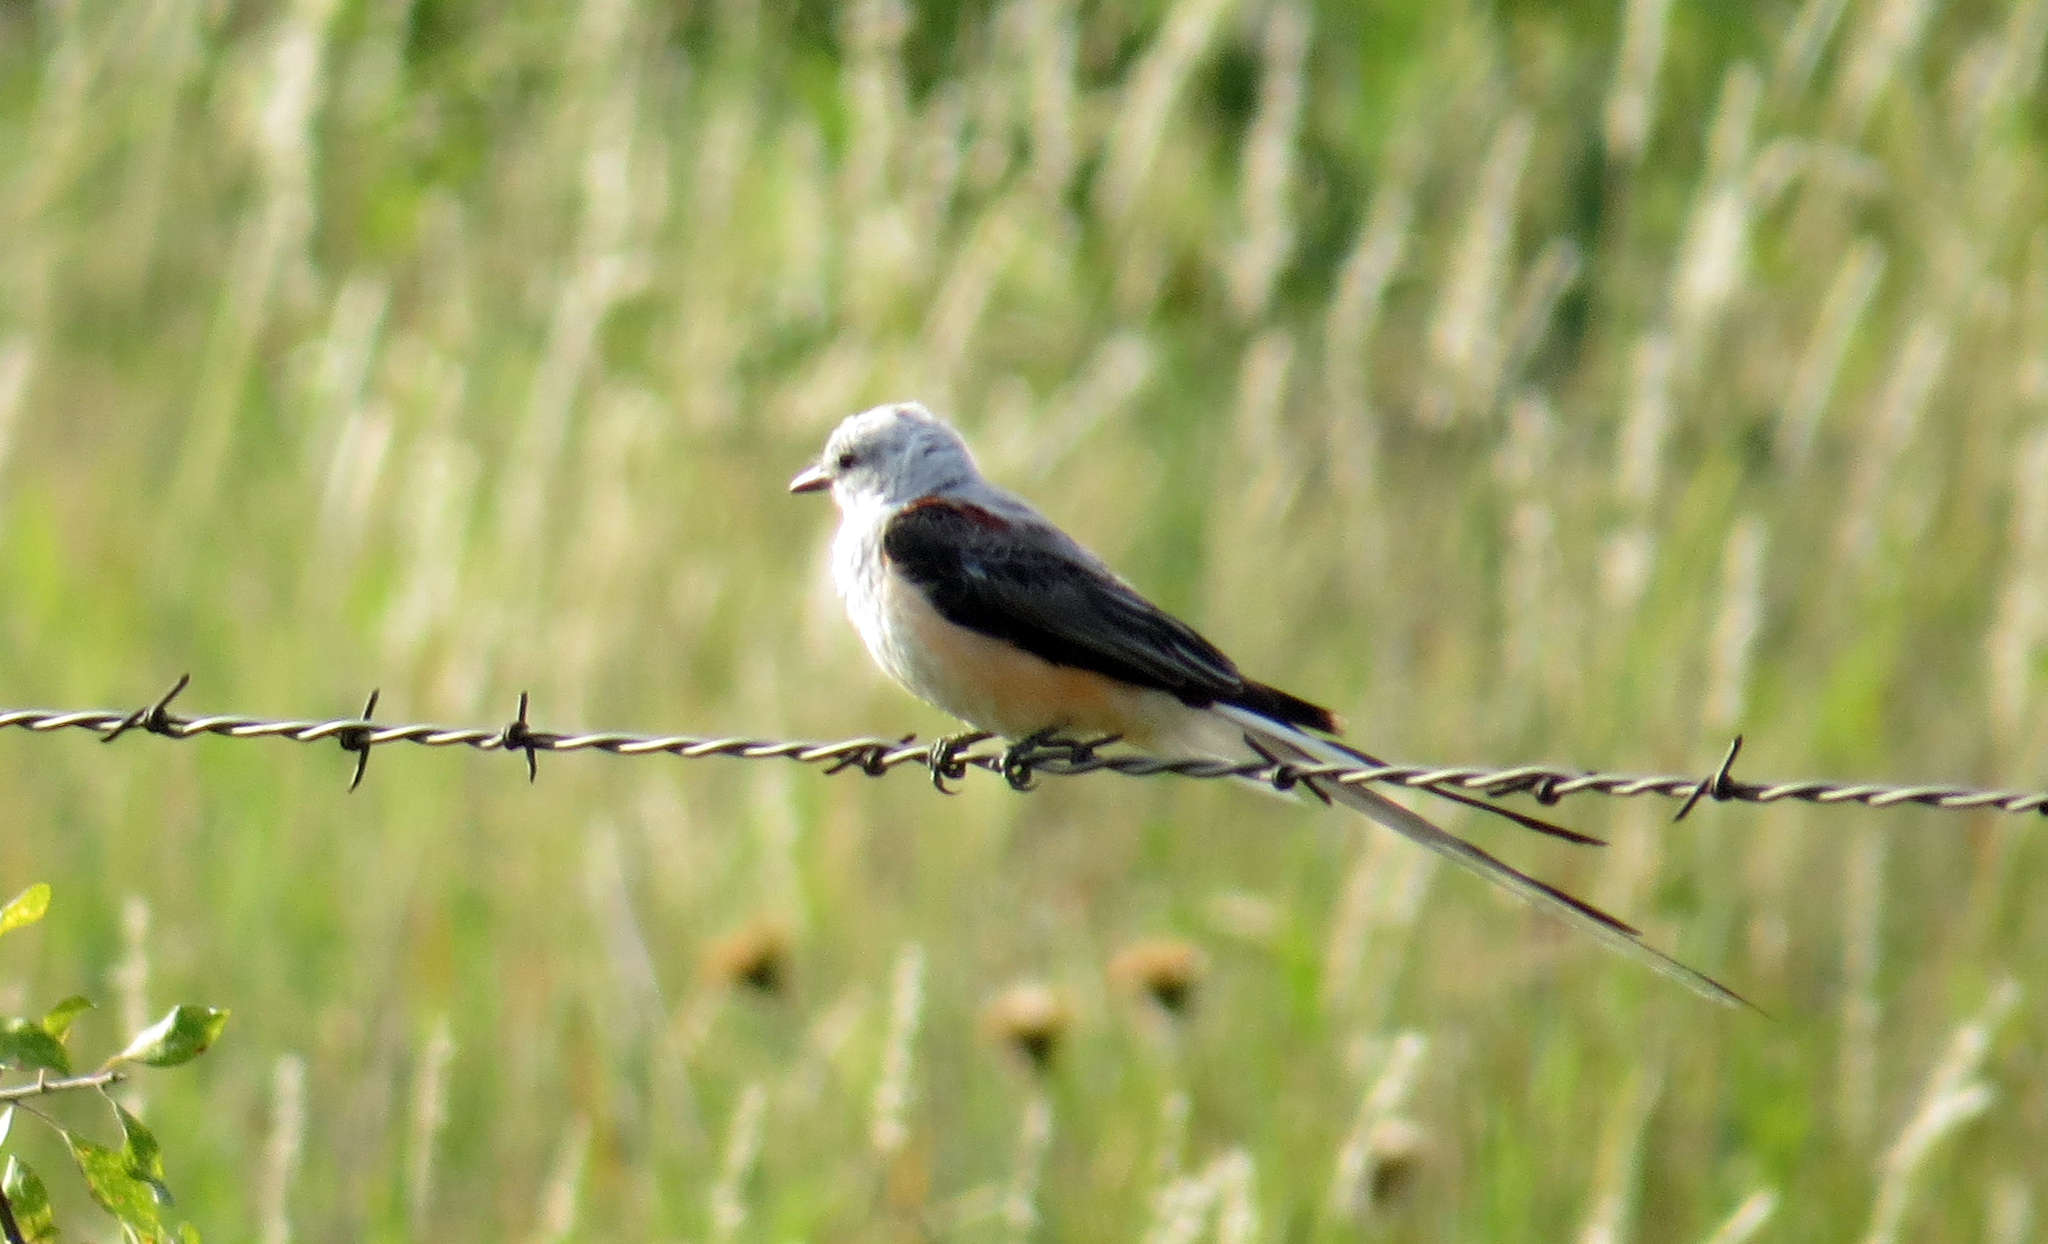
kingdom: Animalia
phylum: Chordata
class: Aves
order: Passeriformes
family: Tyrannidae
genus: Tyrannus
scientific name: Tyrannus forficatus
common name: Scissor-tailed flycatcher
